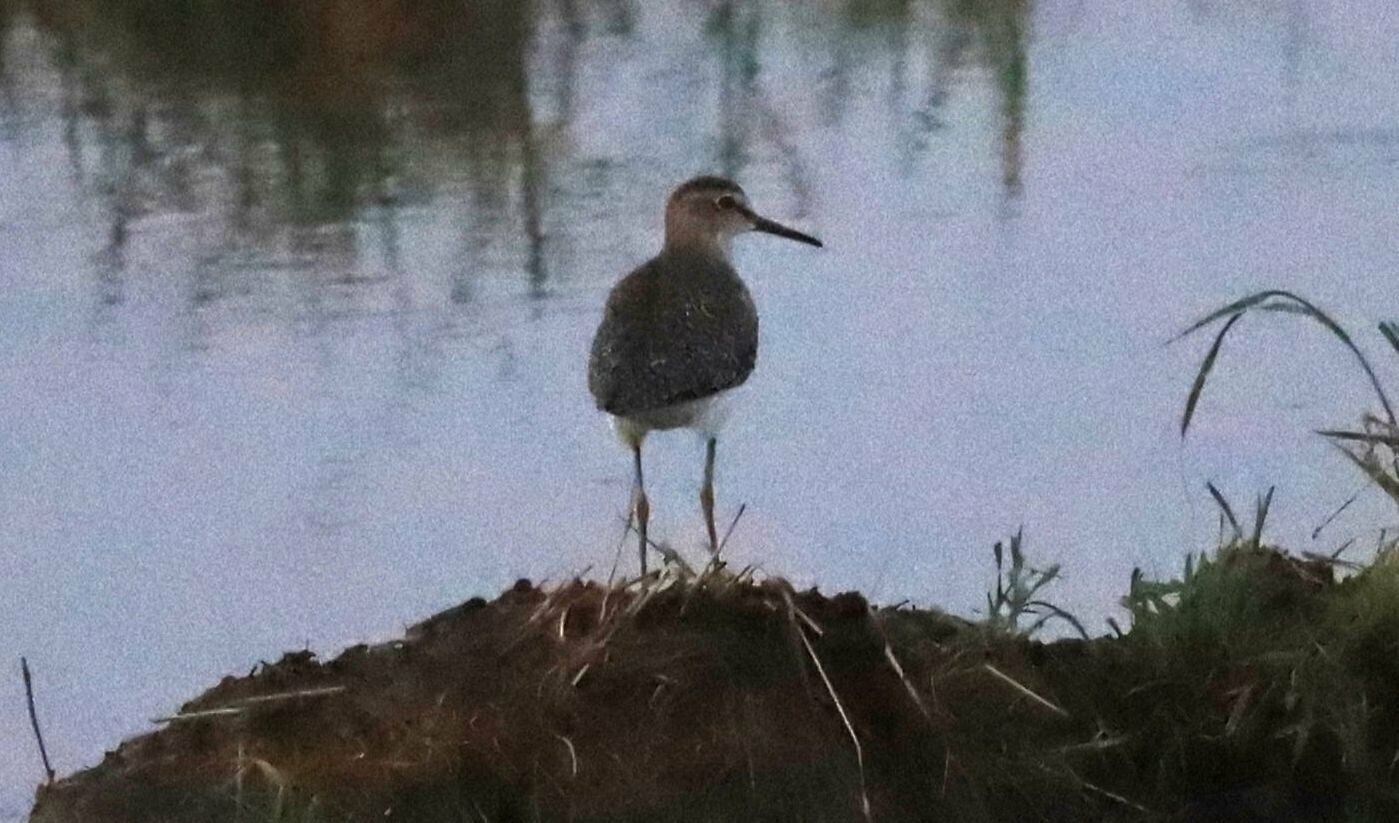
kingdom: Animalia
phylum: Chordata
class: Aves
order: Charadriiformes
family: Scolopacidae
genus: Tringa
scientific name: Tringa glareola
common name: Wood sandpiper
